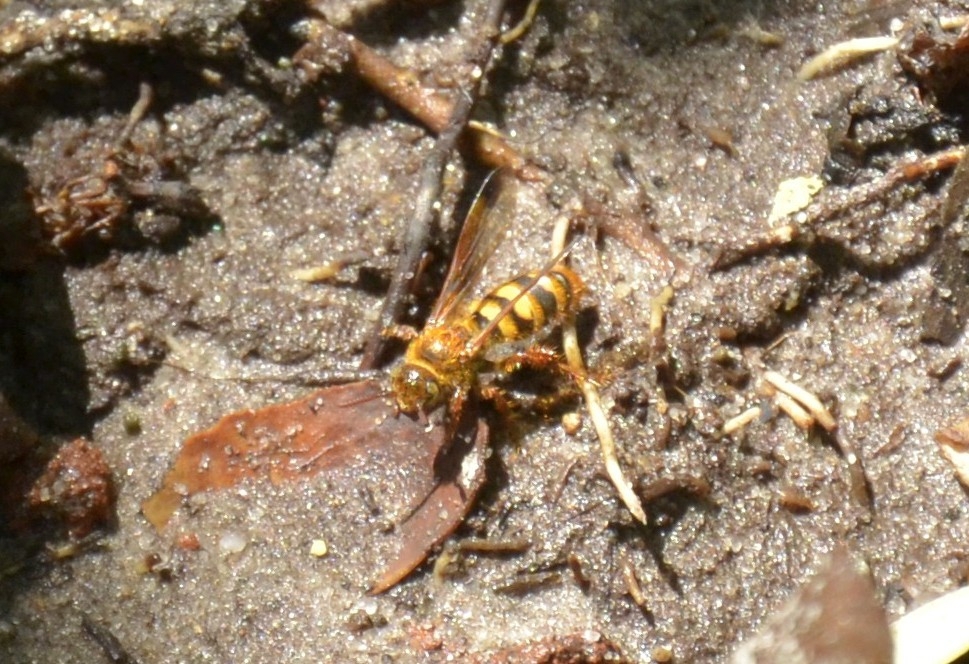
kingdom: Animalia
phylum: Arthropoda
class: Insecta
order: Hymenoptera
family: Scoliidae
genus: Phalerimeris
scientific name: Phalerimeris
